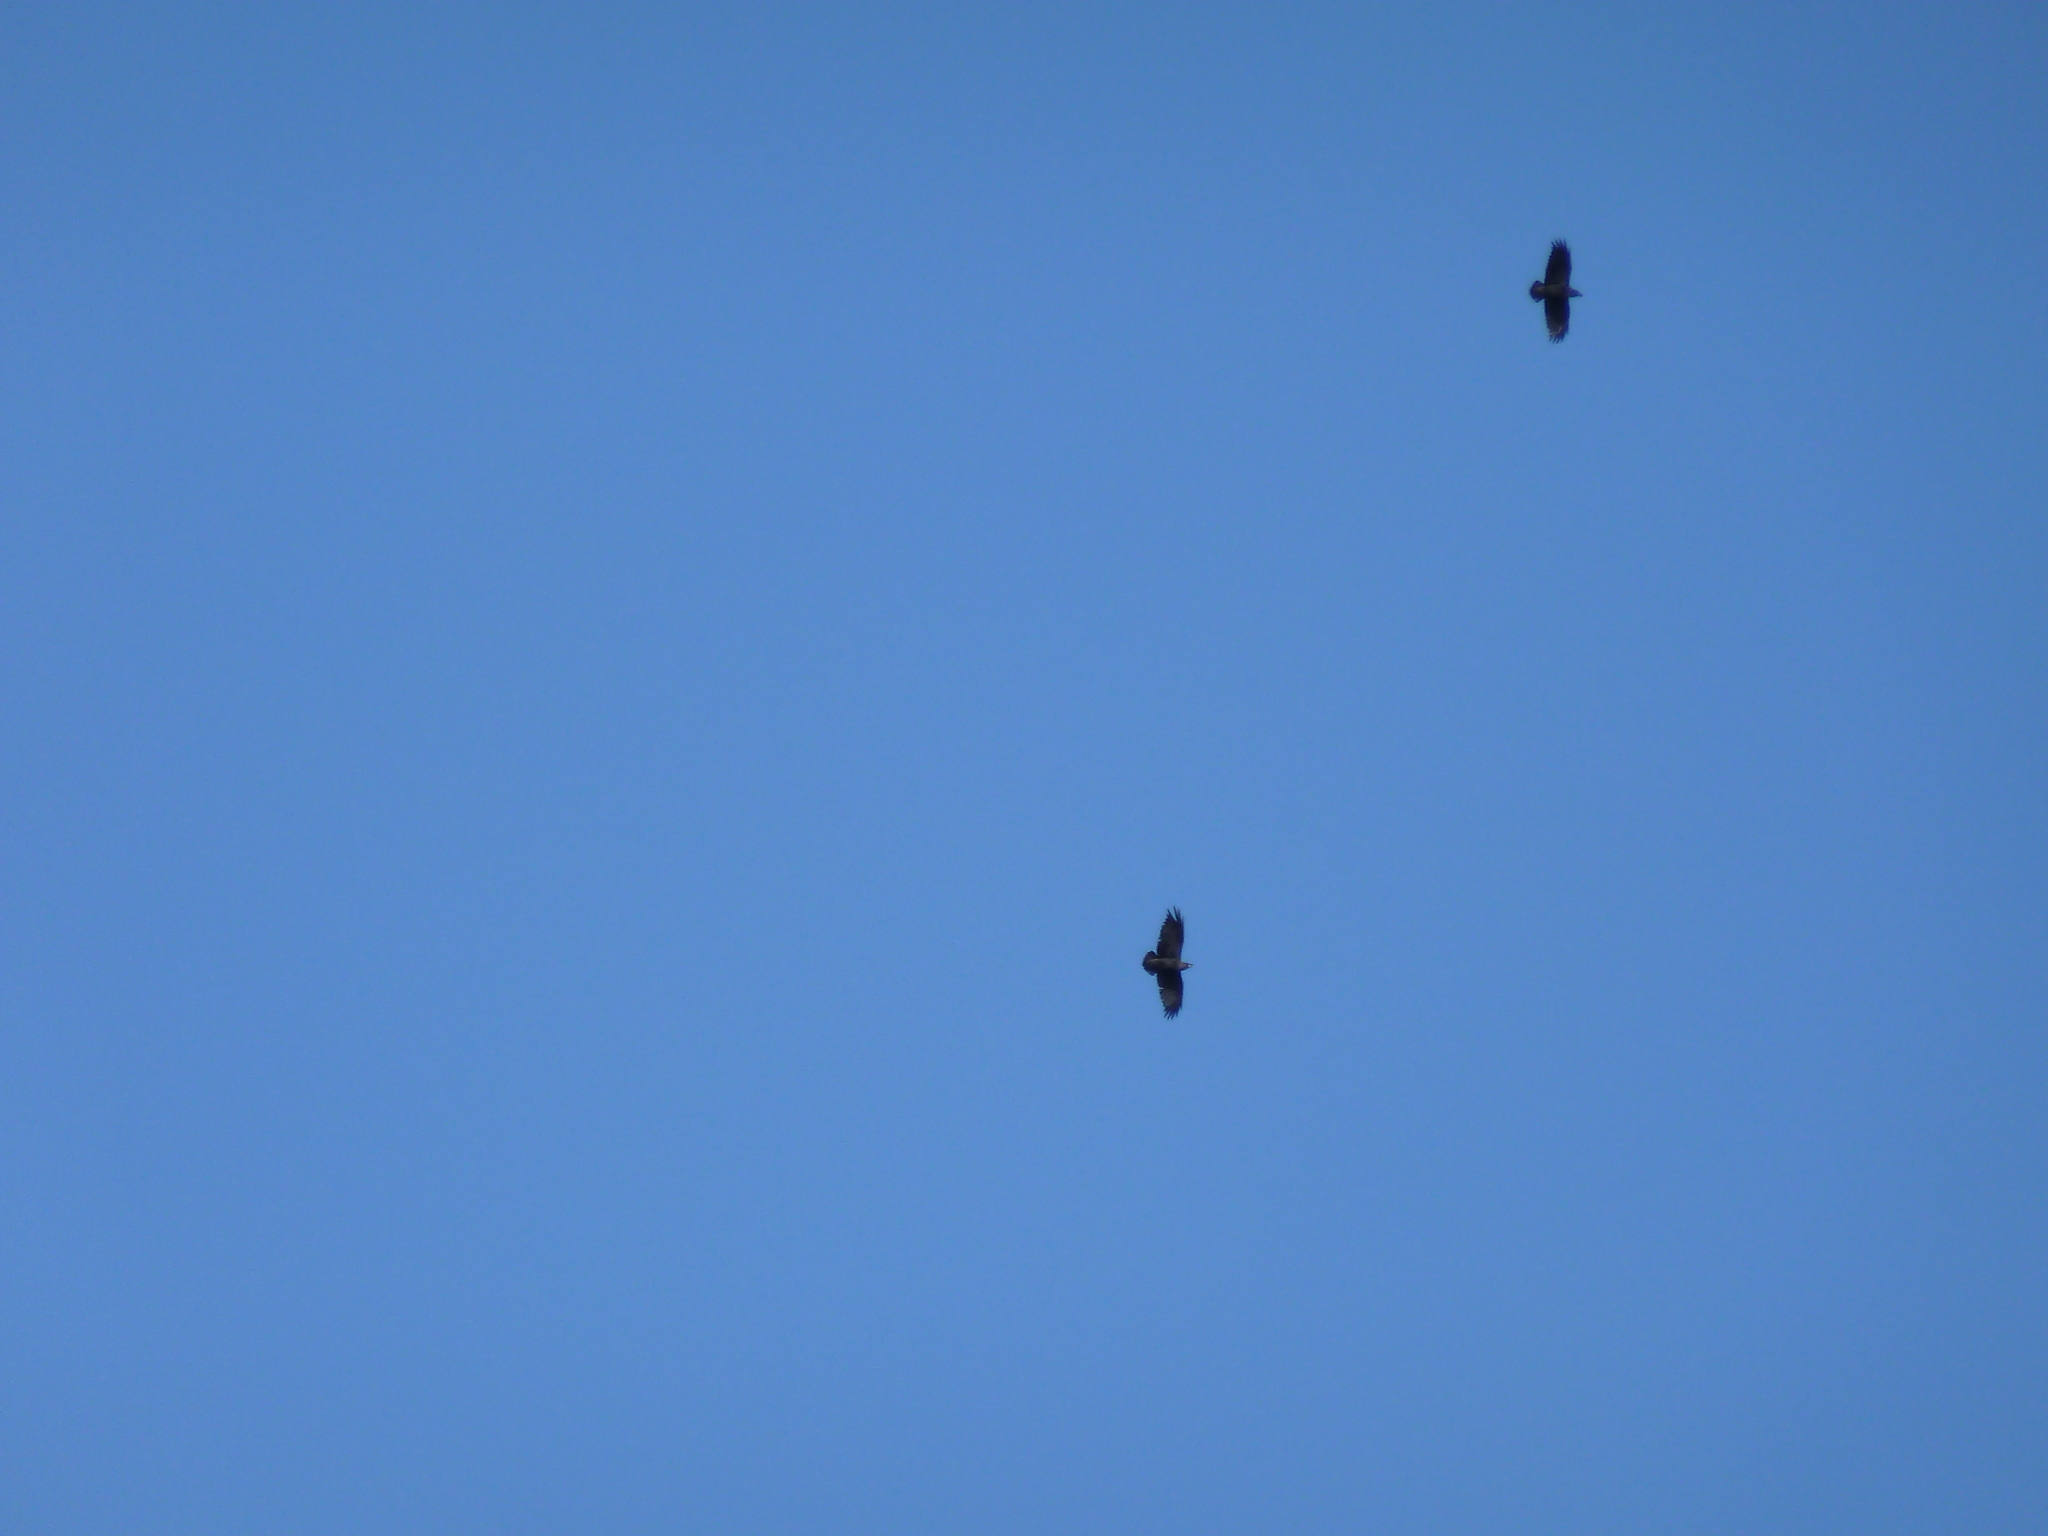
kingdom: Animalia
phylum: Chordata
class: Aves
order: Passeriformes
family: Corvidae
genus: Corvus
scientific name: Corvus albicollis
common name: White-necked raven
